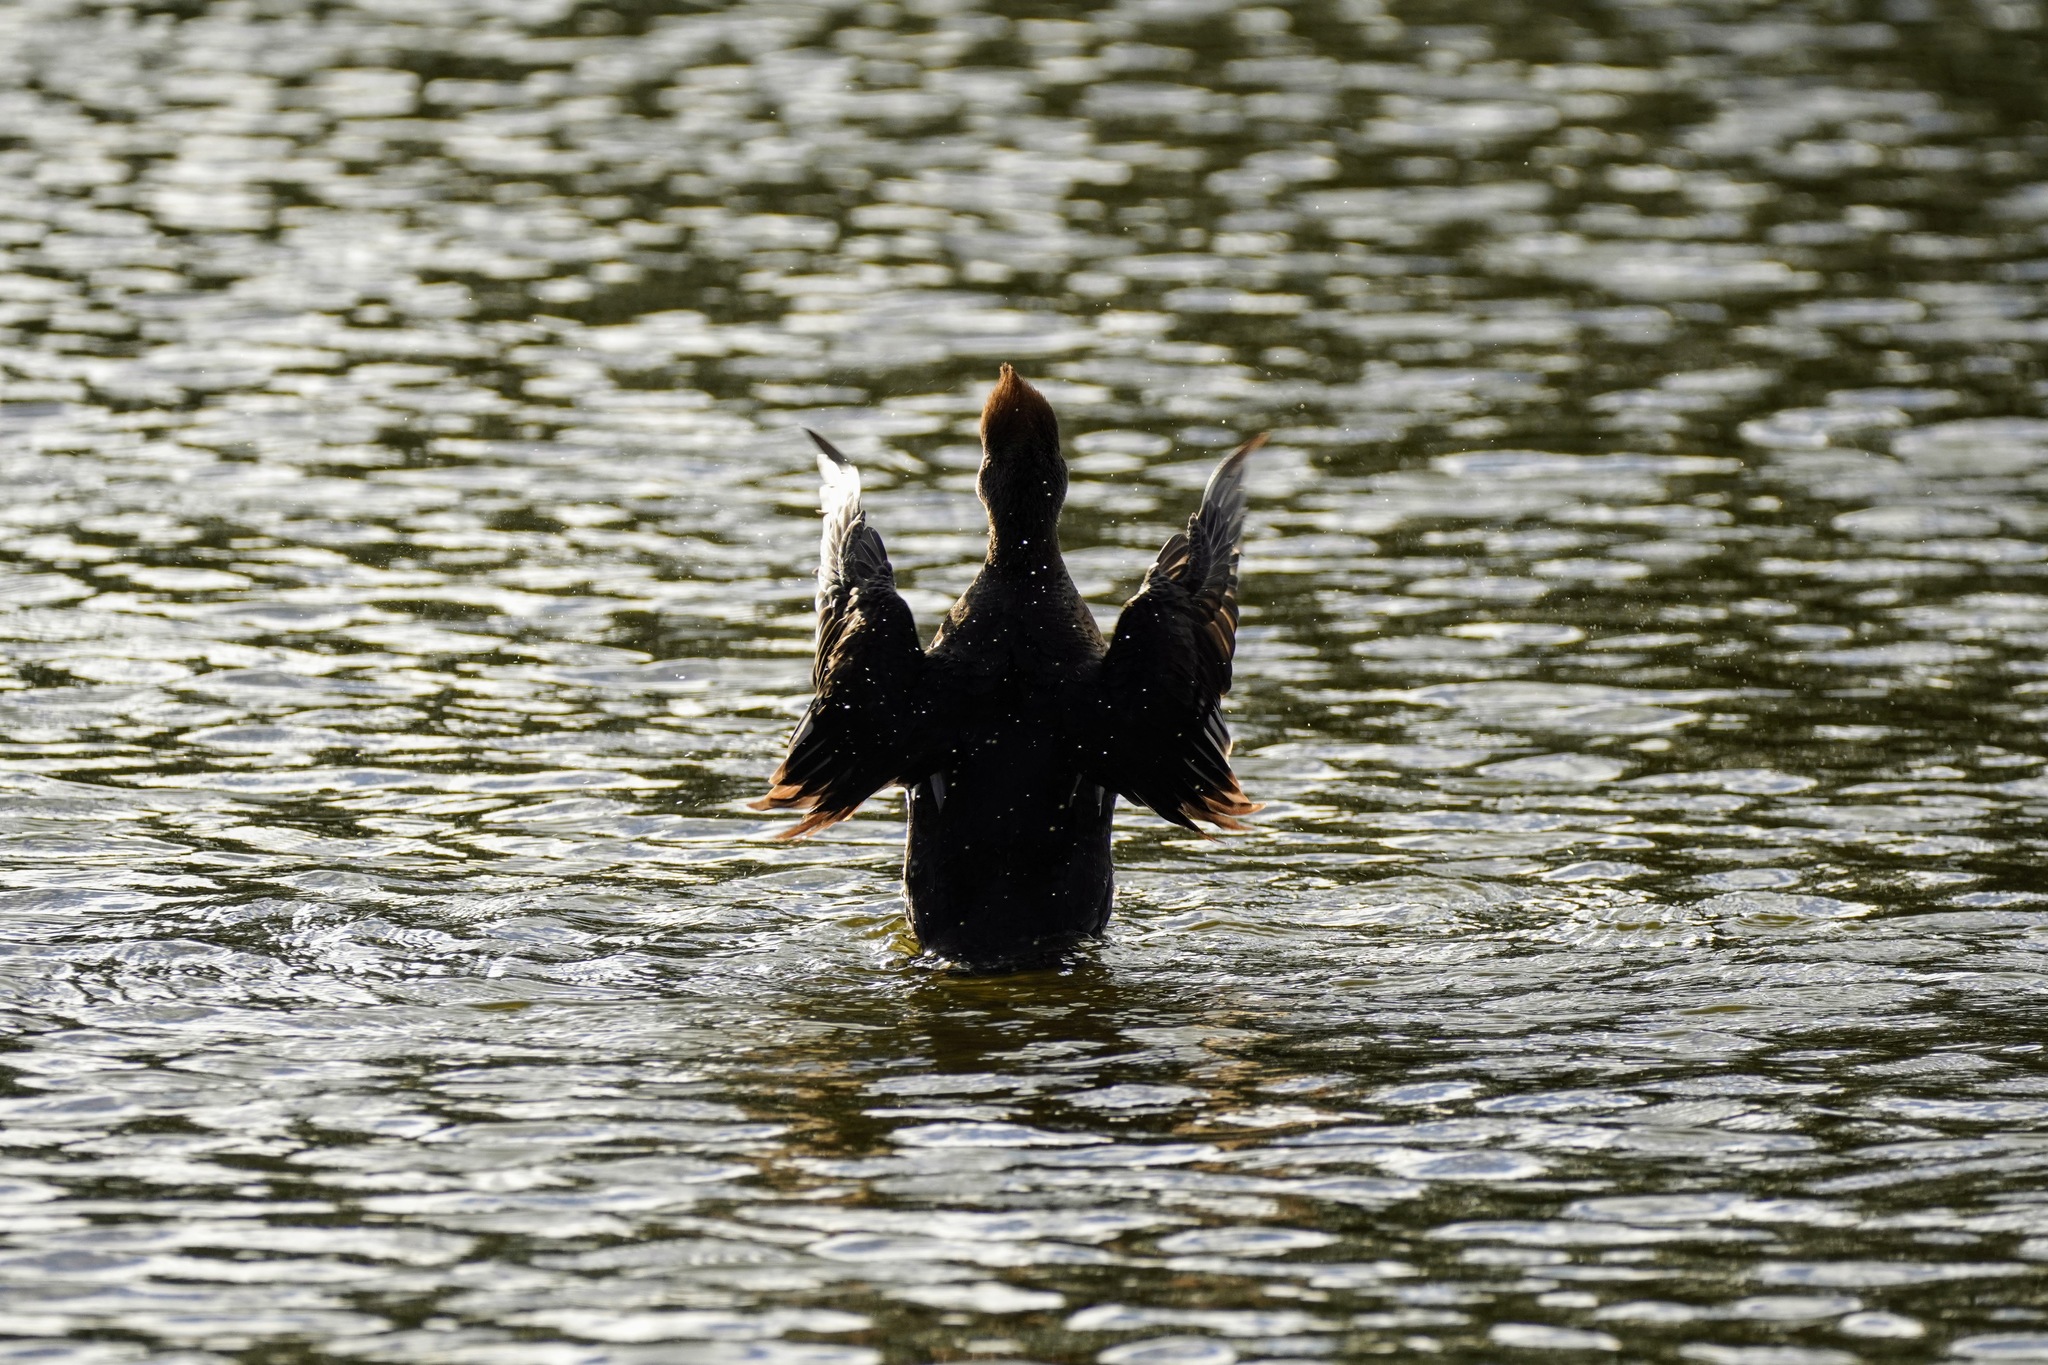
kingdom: Animalia
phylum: Chordata
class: Aves
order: Anseriformes
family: Anatidae
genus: Lophodytes
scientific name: Lophodytes cucullatus
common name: Hooded merganser
